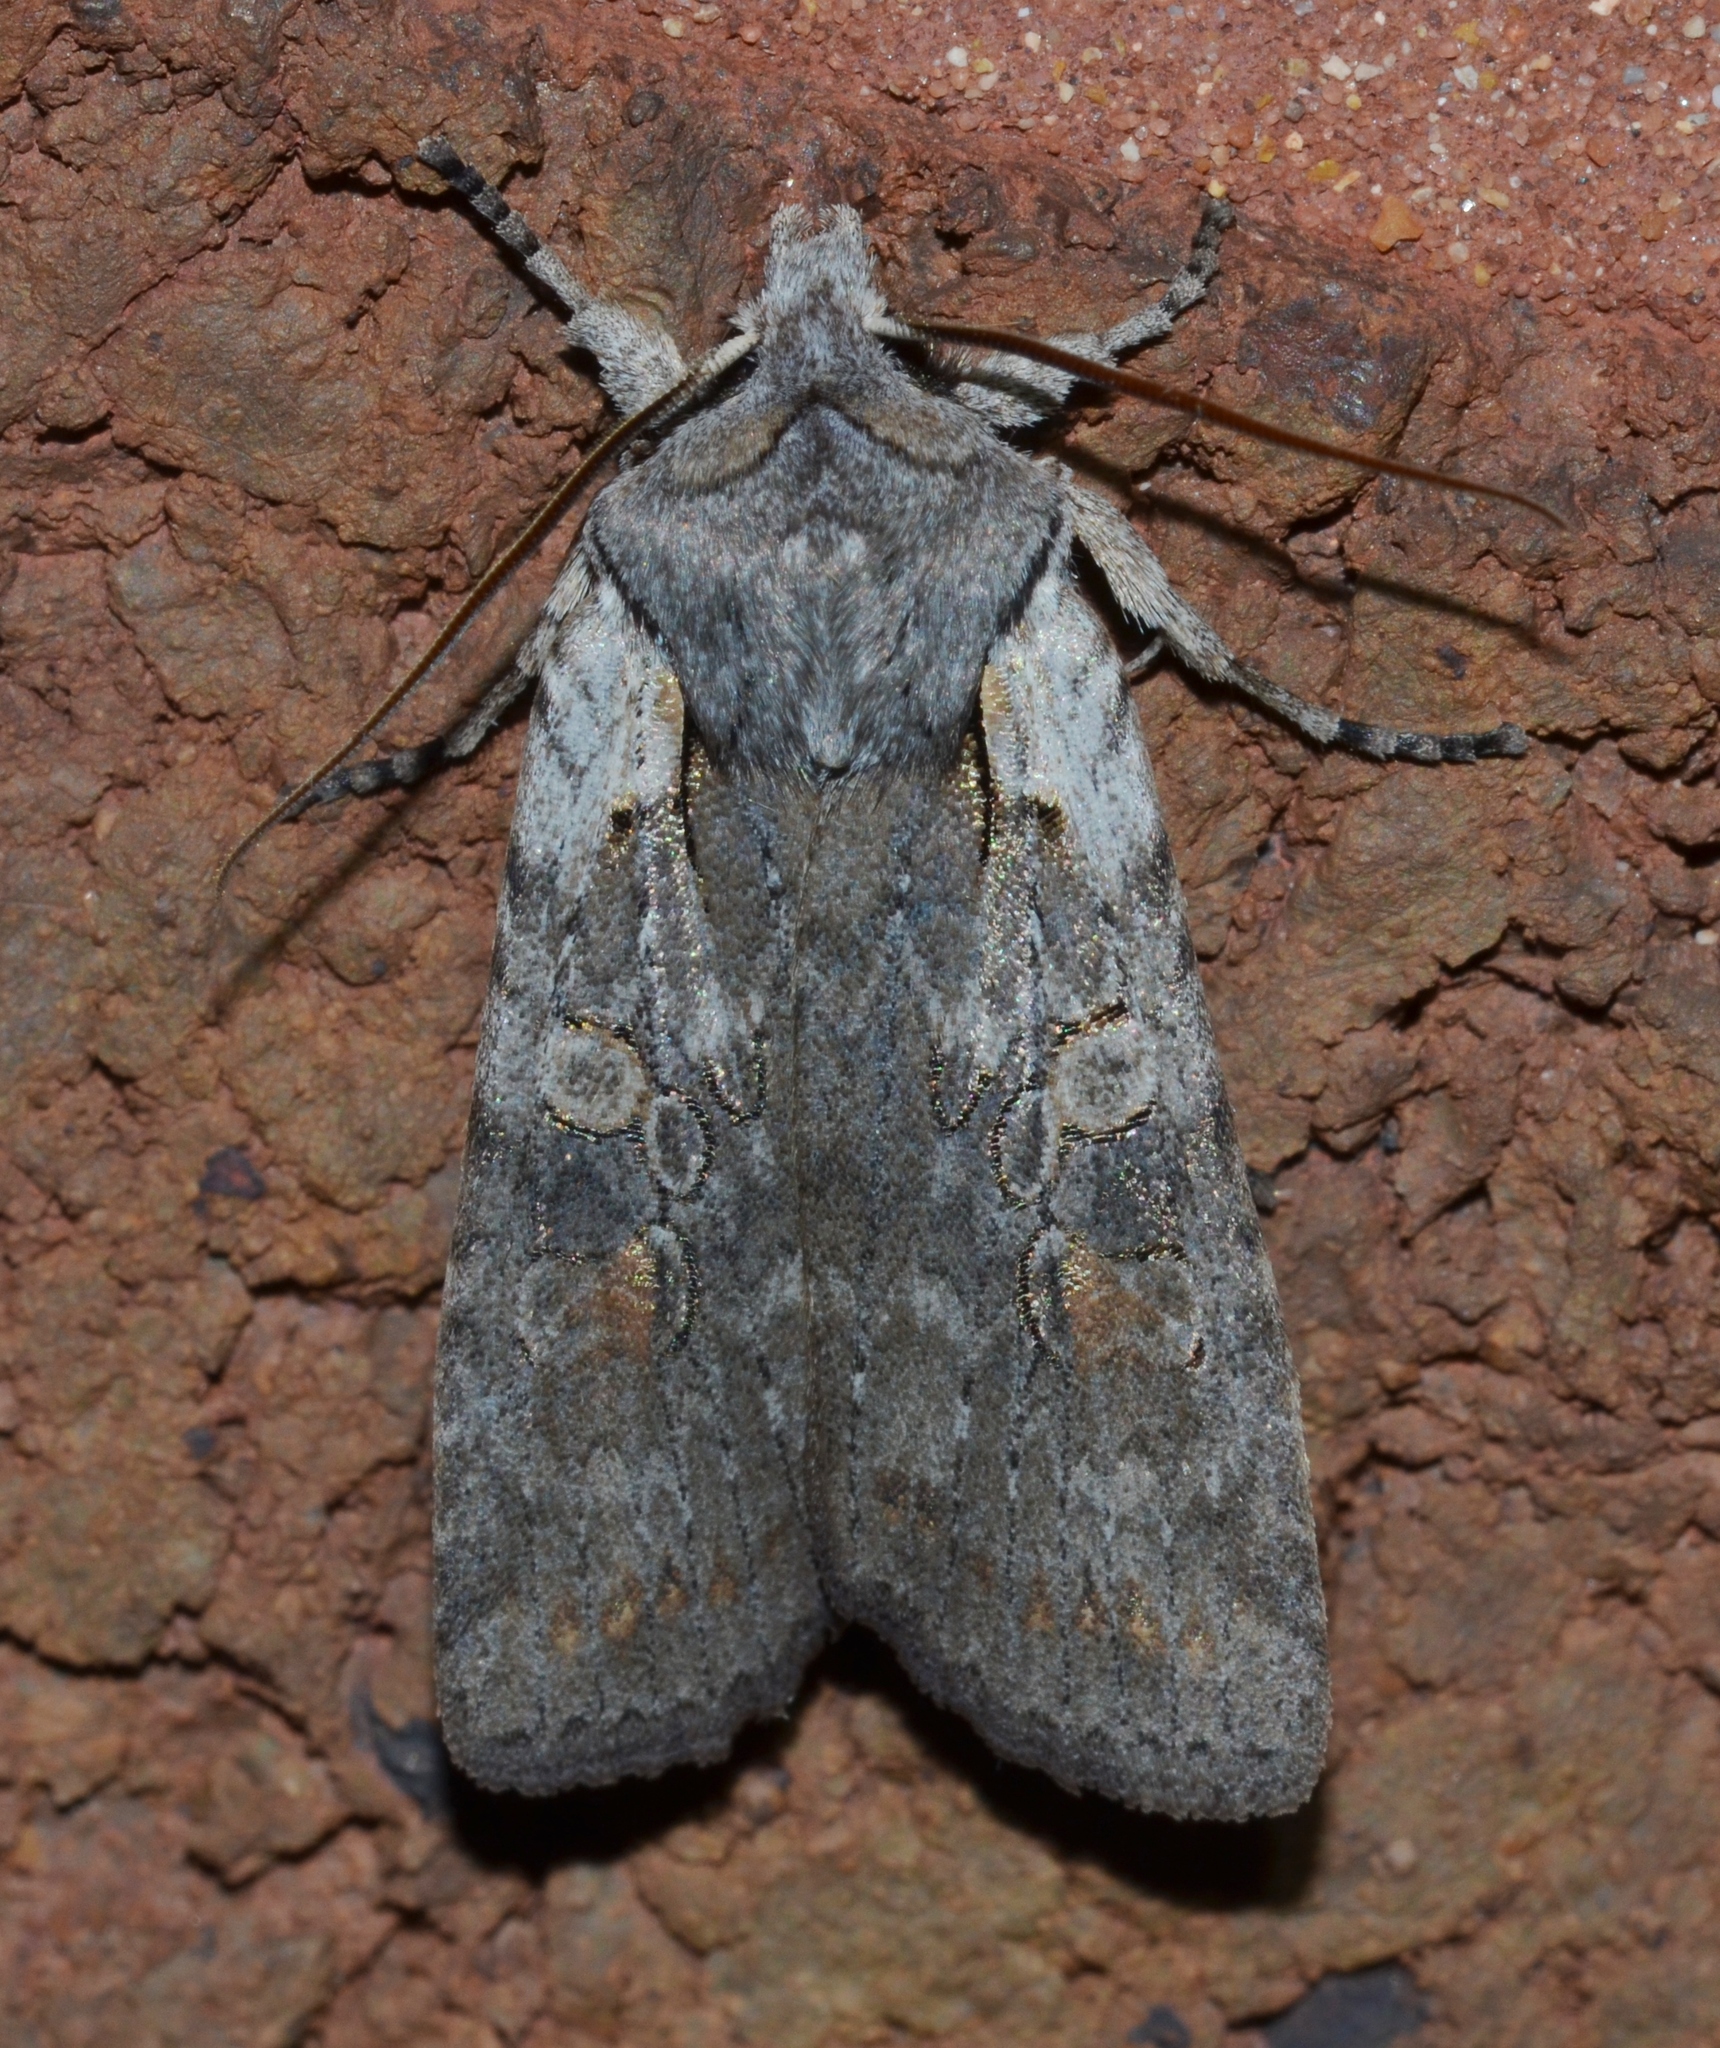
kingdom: Animalia
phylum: Arthropoda
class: Insecta
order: Lepidoptera
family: Noctuidae
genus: Lithophane
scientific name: Lithophane antennata
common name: Ashen pinion
